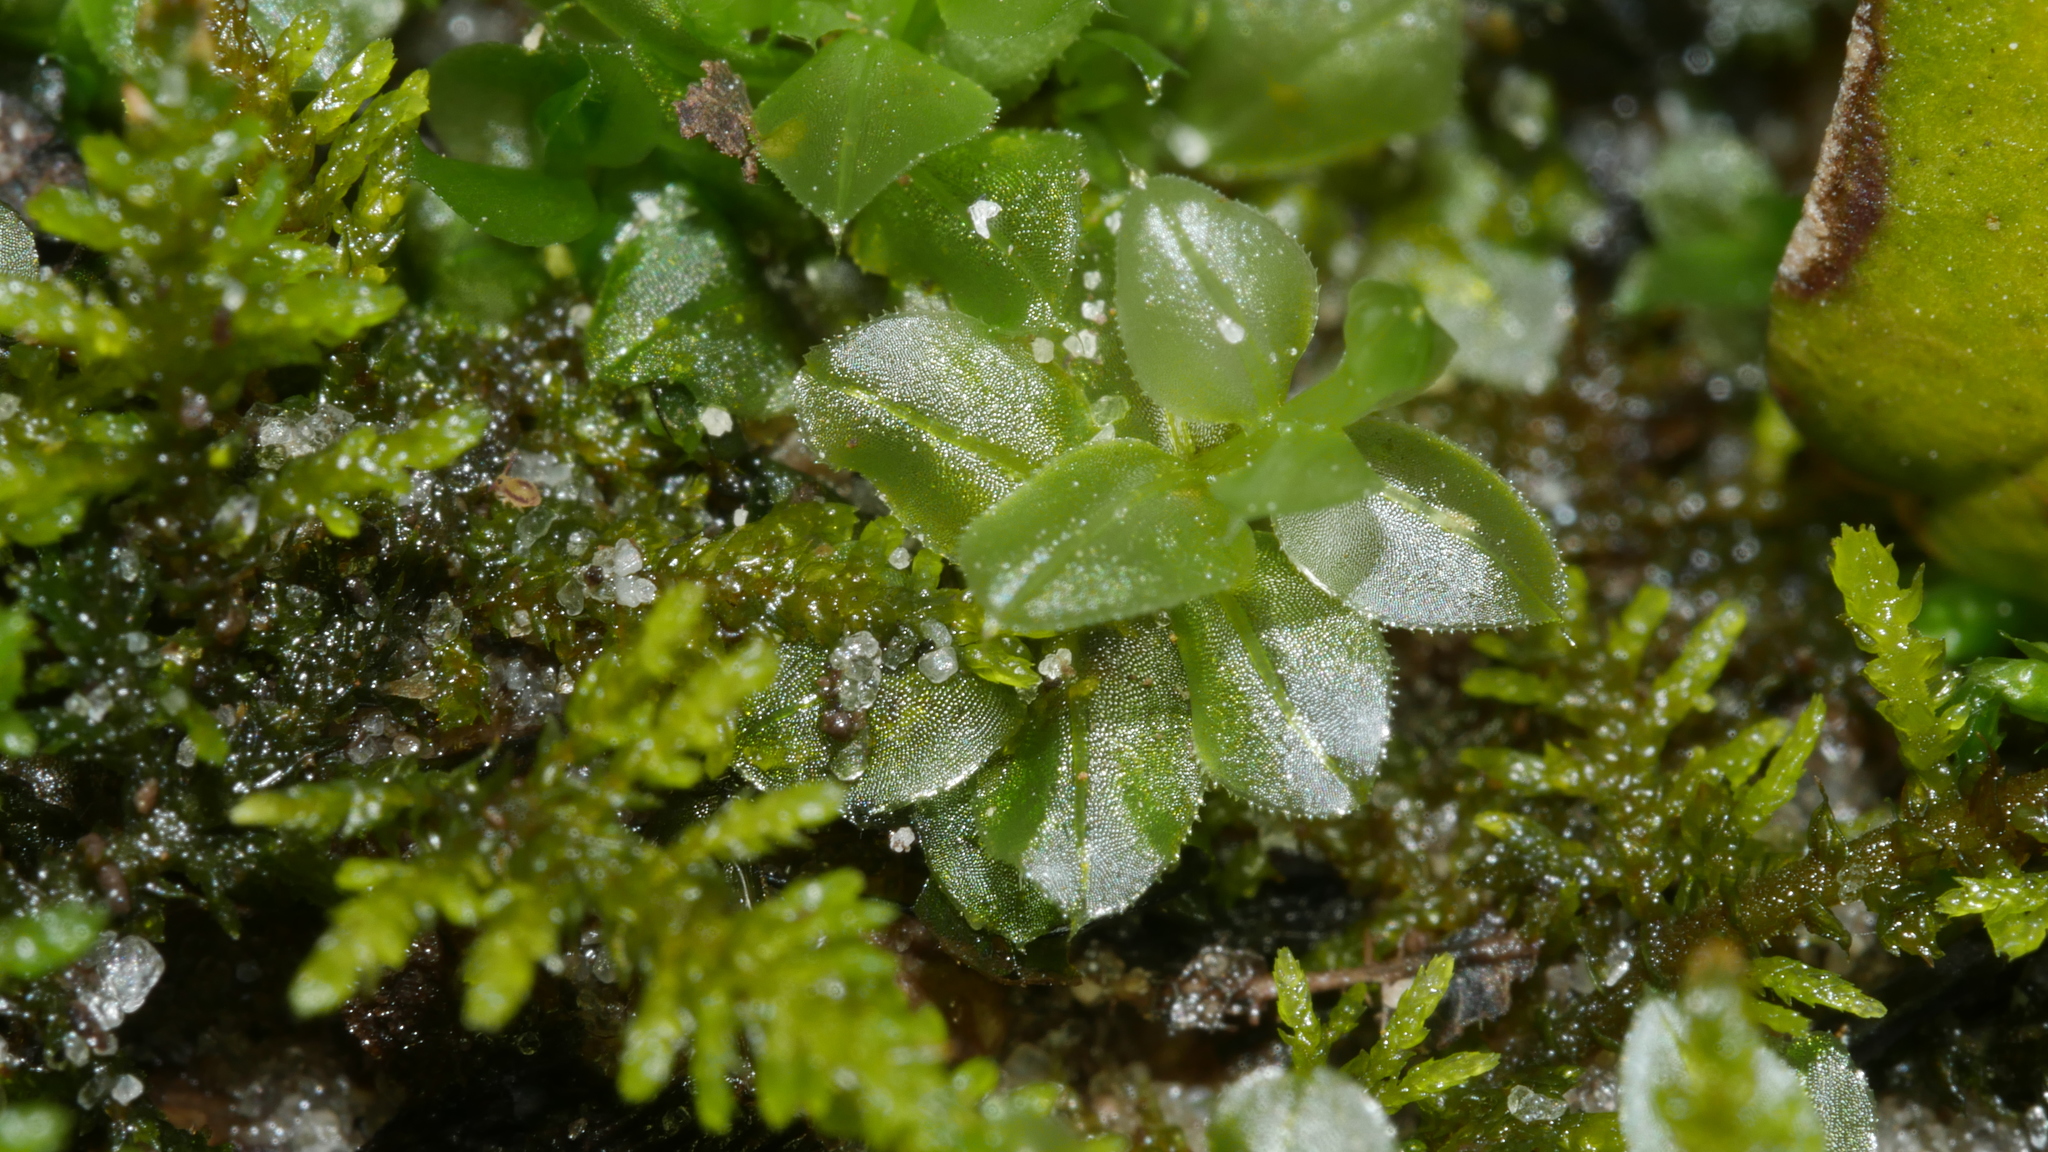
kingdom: Plantae
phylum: Bryophyta
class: Bryopsida
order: Bryales
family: Mniaceae
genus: Plagiomnium
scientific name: Plagiomnium
